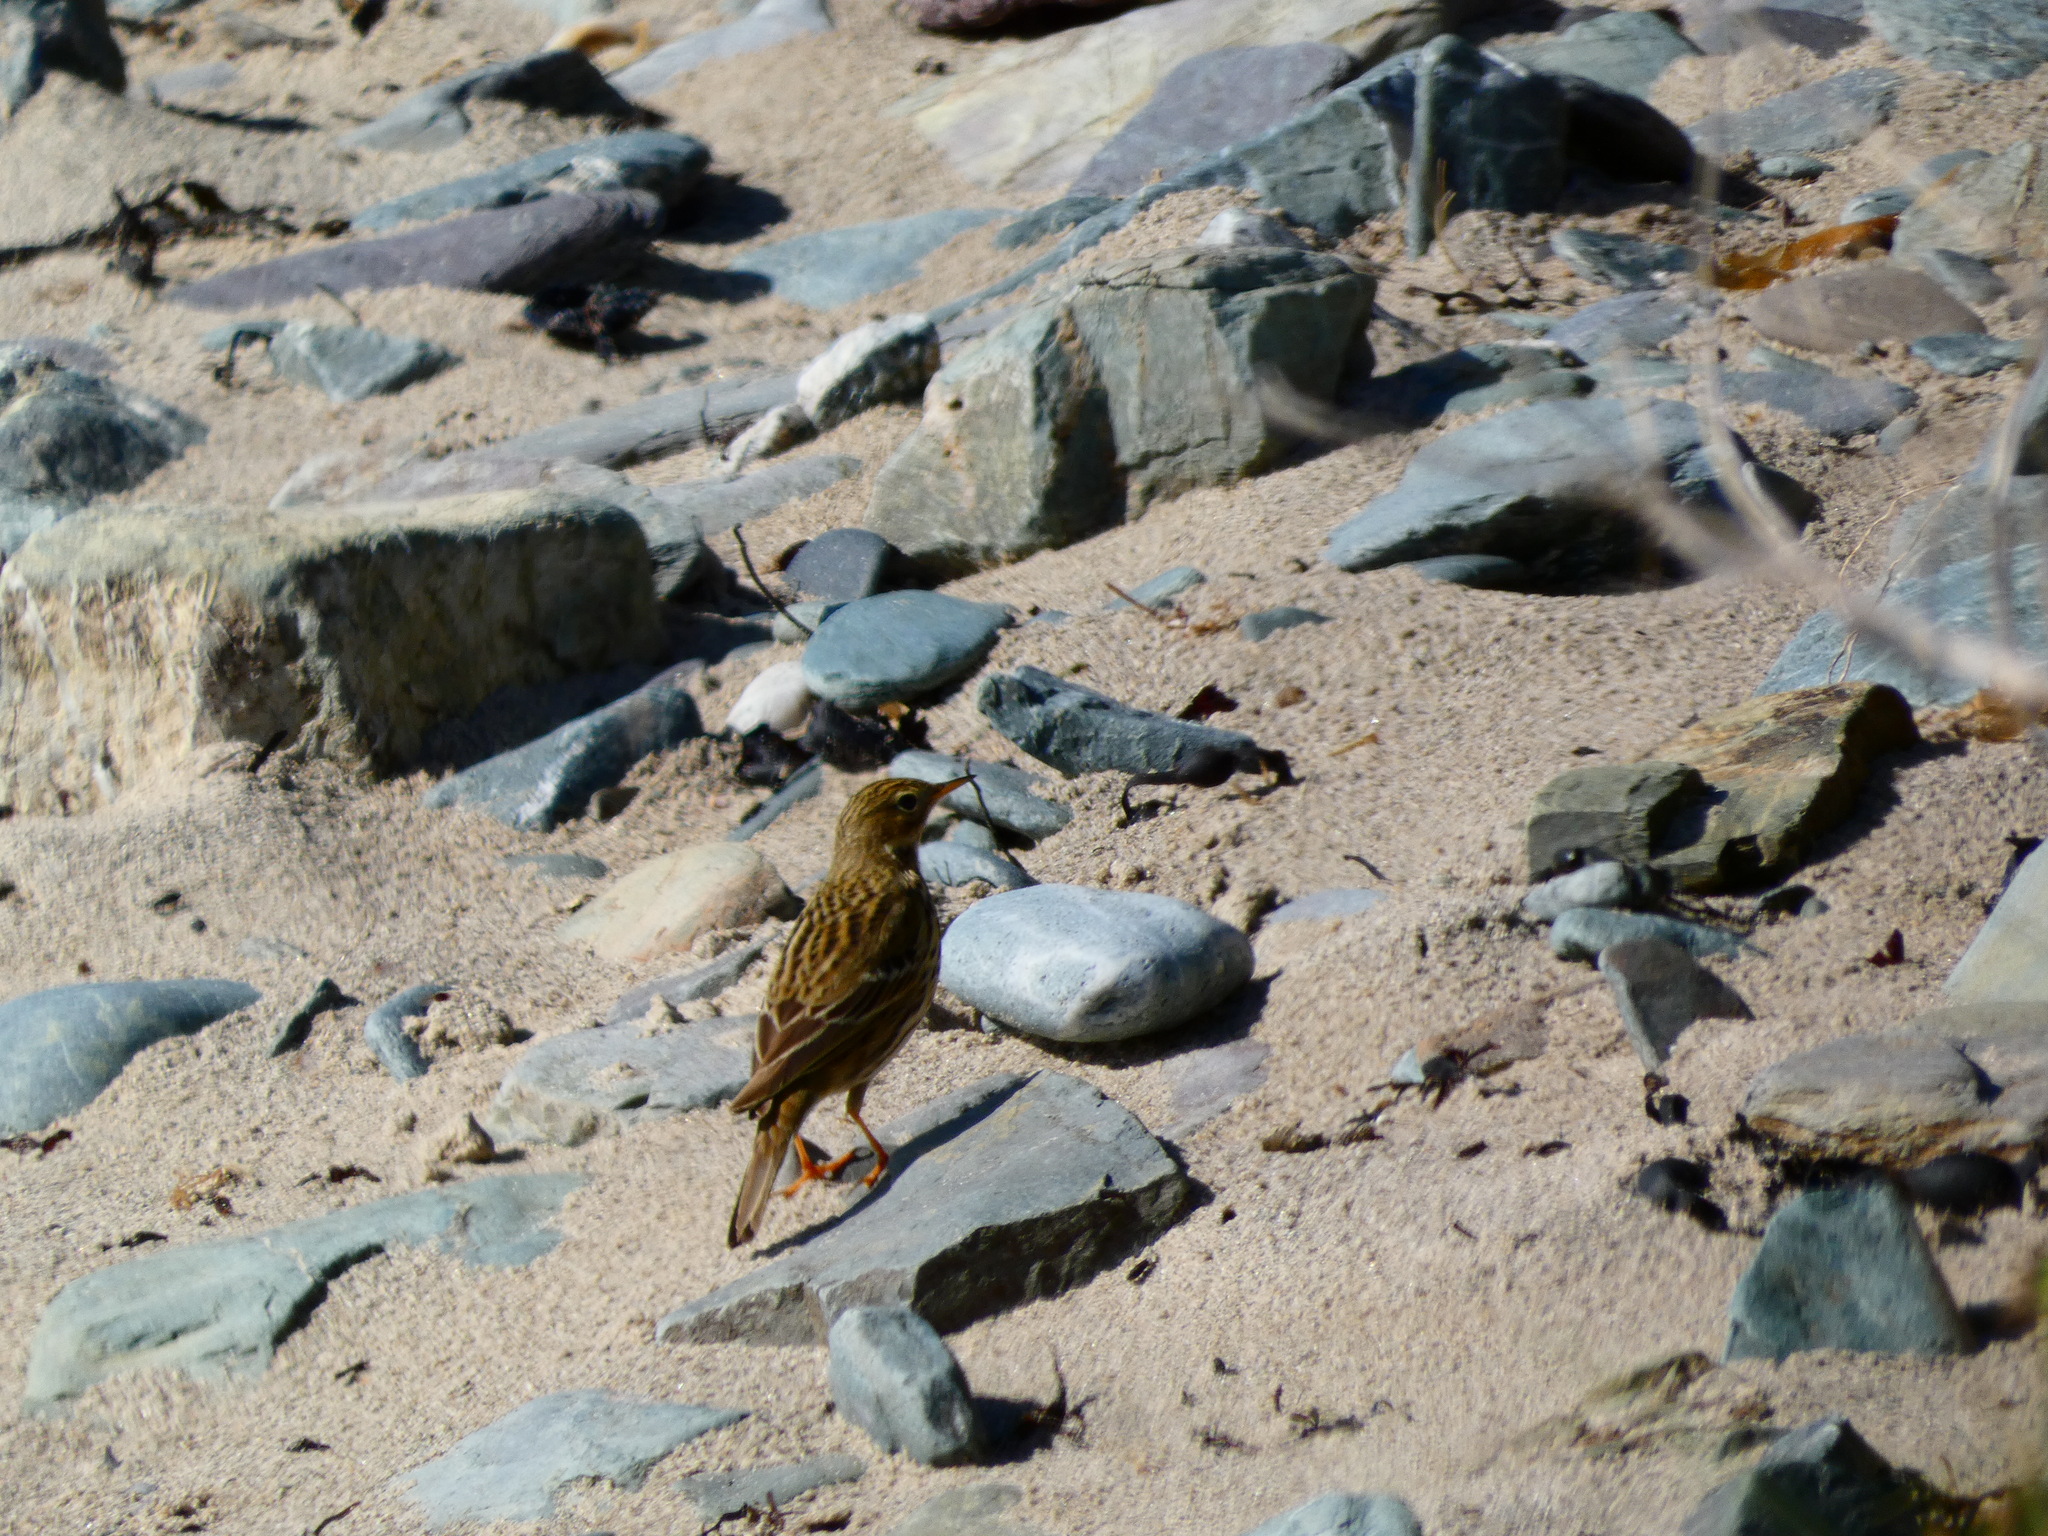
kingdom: Animalia
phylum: Chordata
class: Aves
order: Passeriformes
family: Motacillidae
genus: Anthus
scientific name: Anthus pratensis
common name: Meadow pipit
